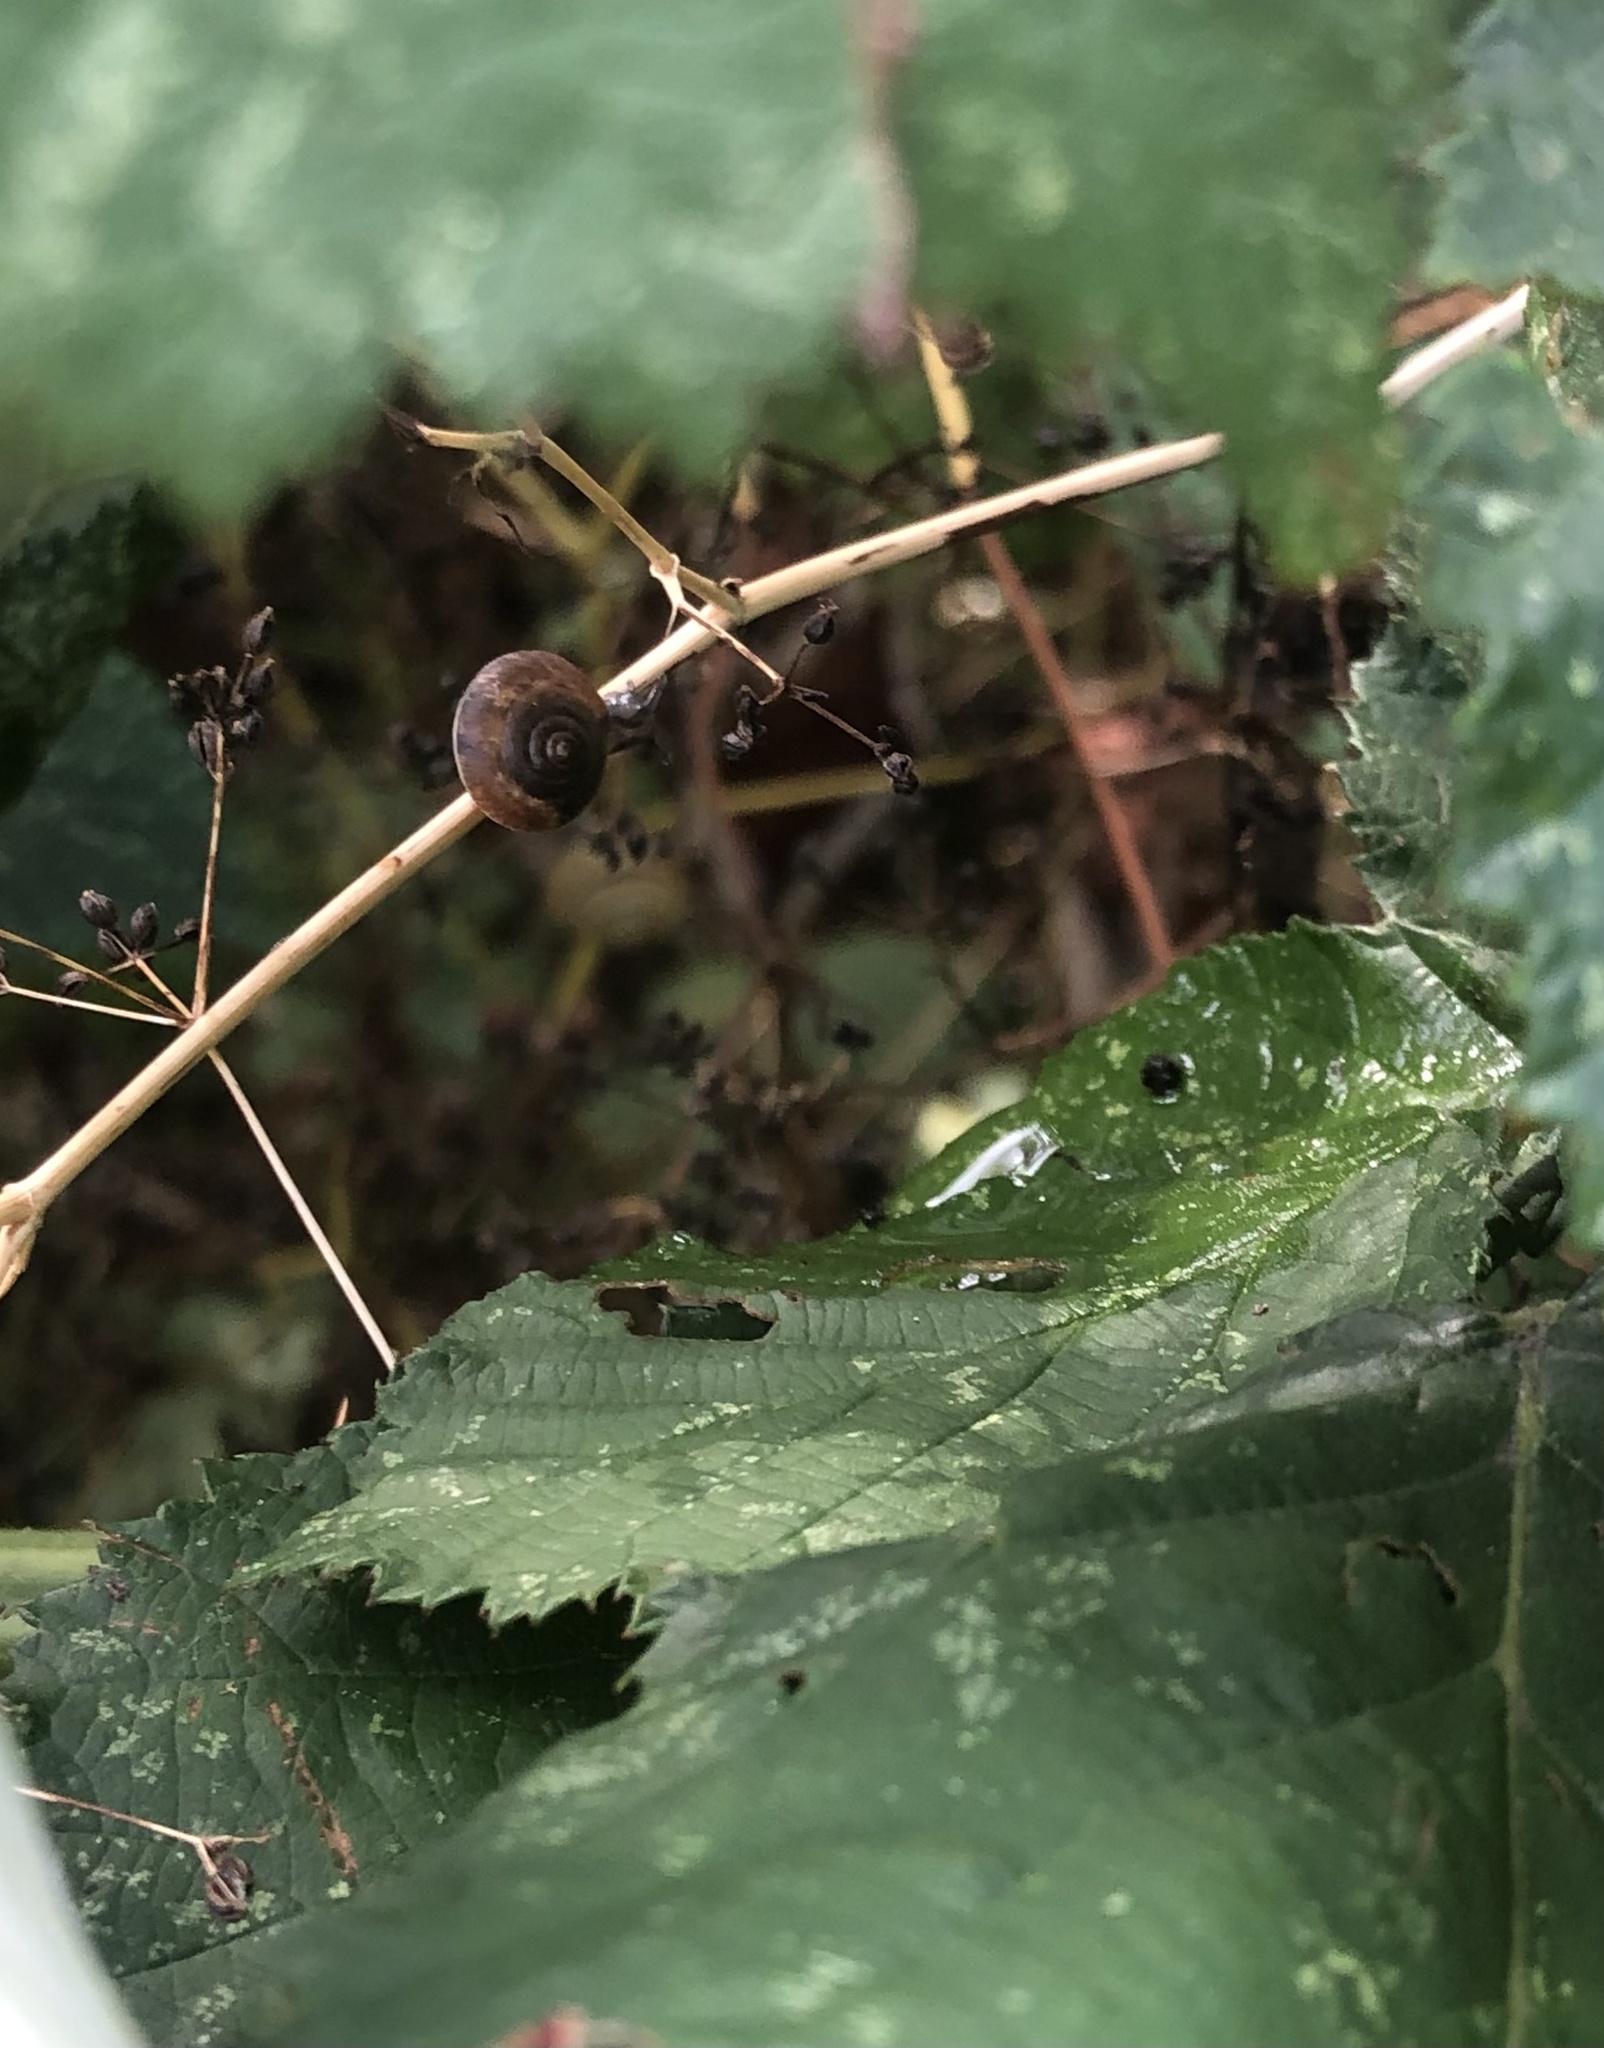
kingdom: Animalia
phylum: Mollusca
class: Gastropoda
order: Stylommatophora
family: Hygromiidae
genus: Hygromia
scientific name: Hygromia cinctella
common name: Girdled snail
